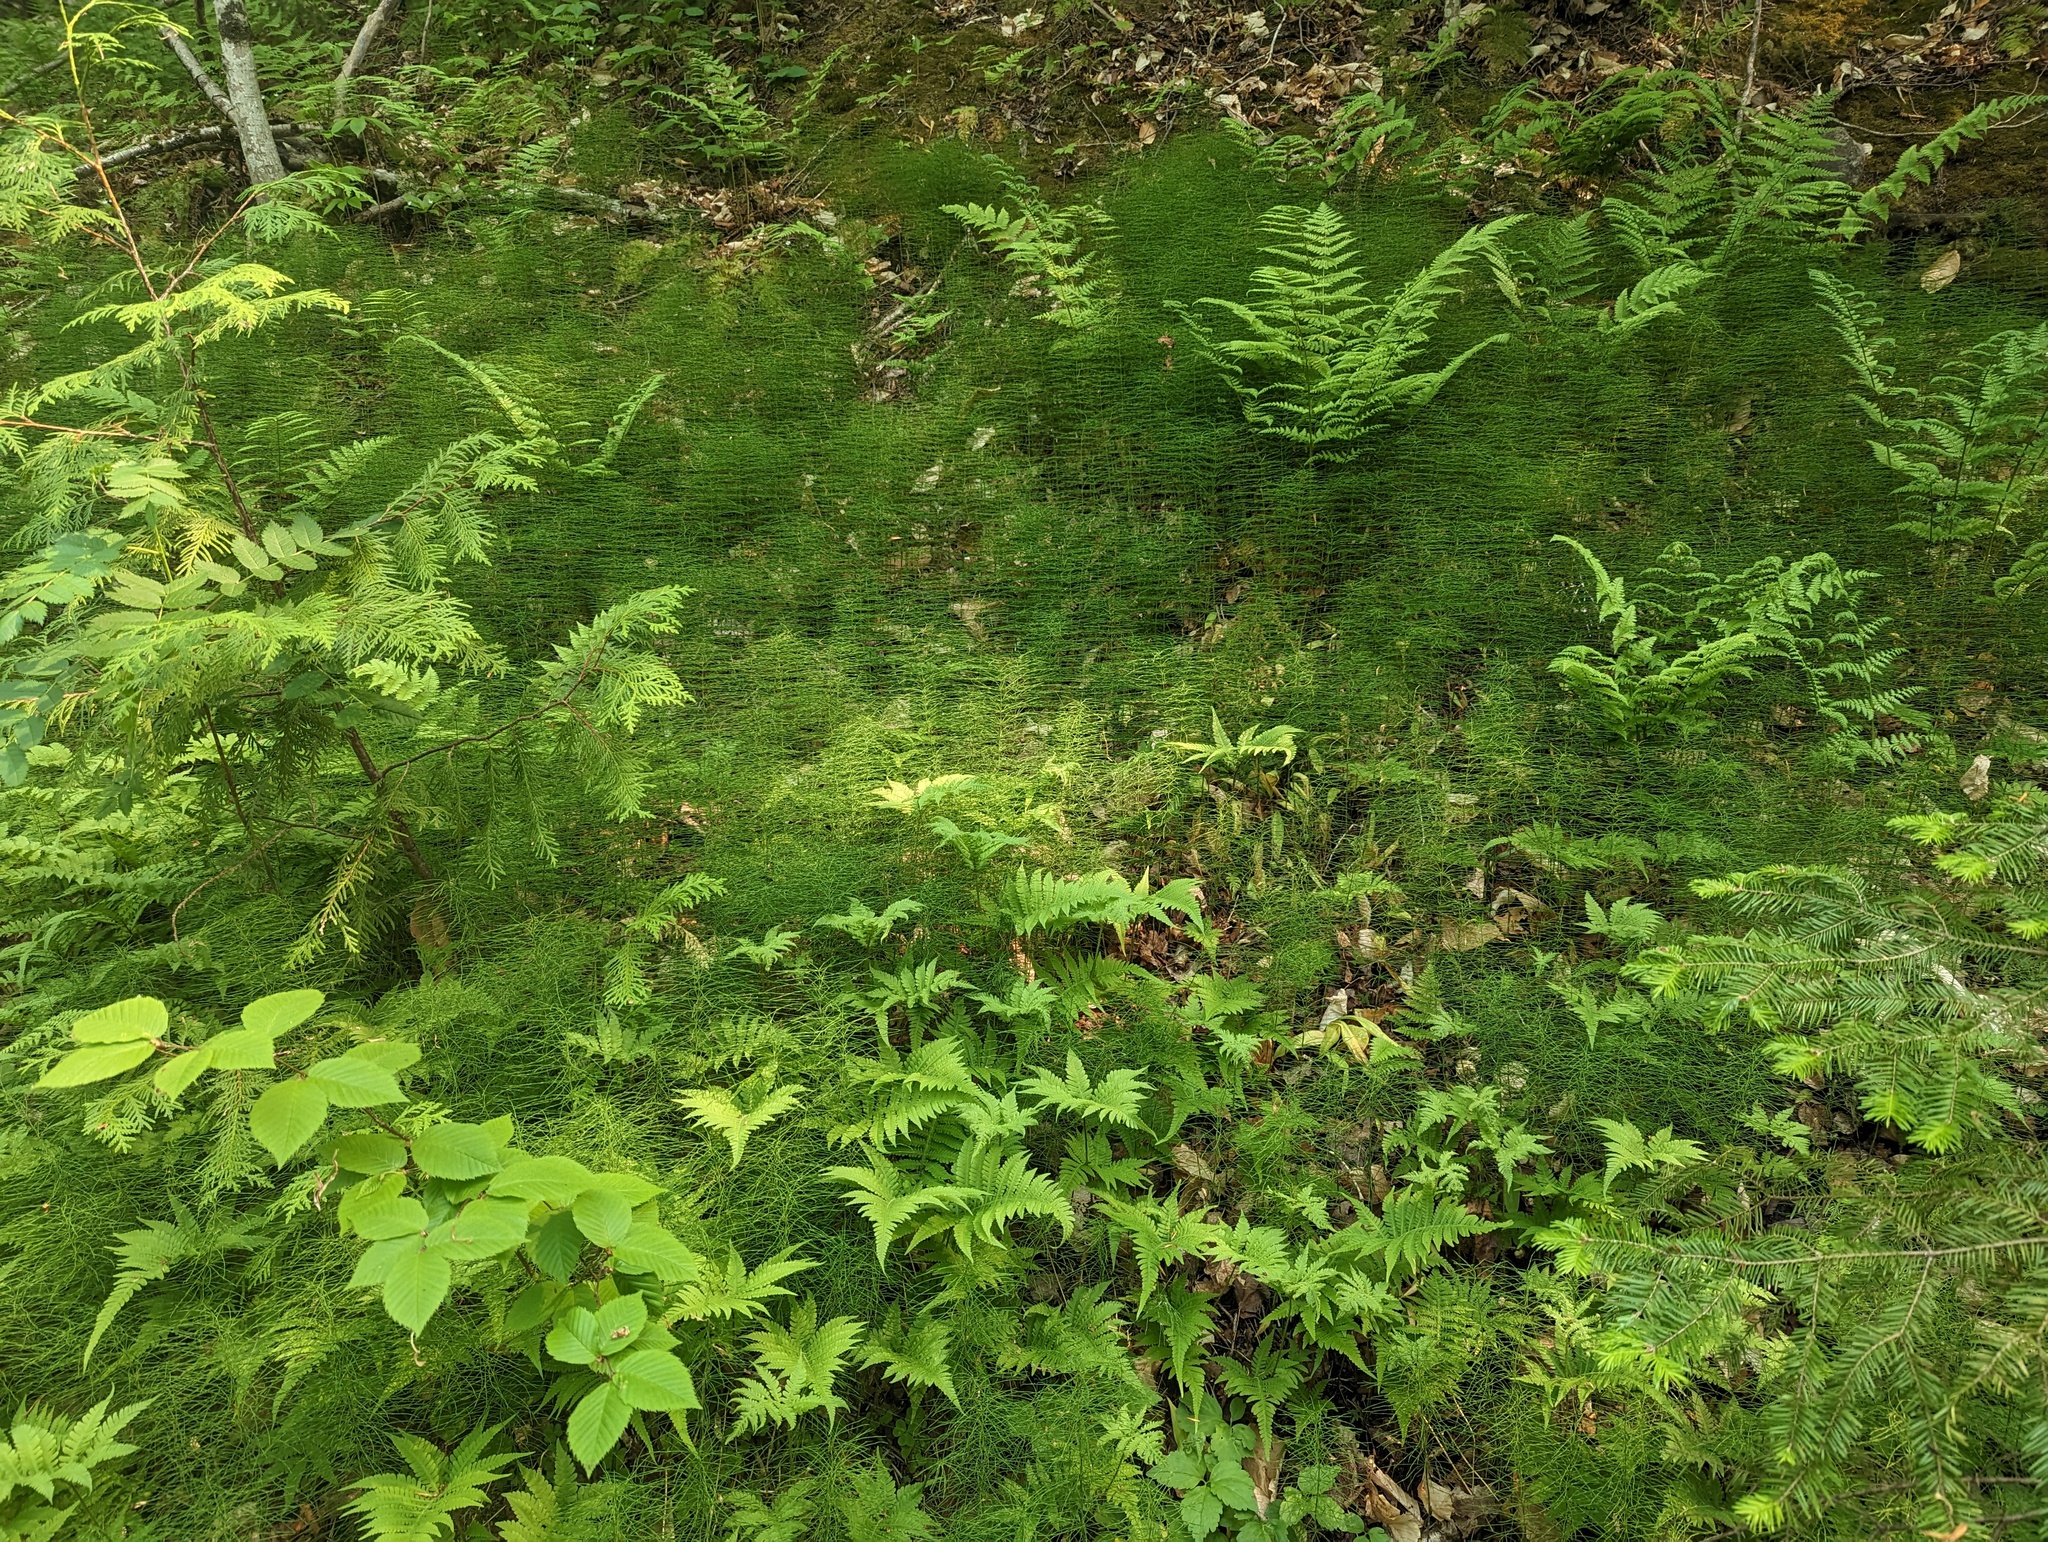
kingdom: Plantae
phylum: Tracheophyta
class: Polypodiopsida
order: Equisetales
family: Equisetaceae
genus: Equisetum
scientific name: Equisetum pratense
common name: Meadow horsetail
